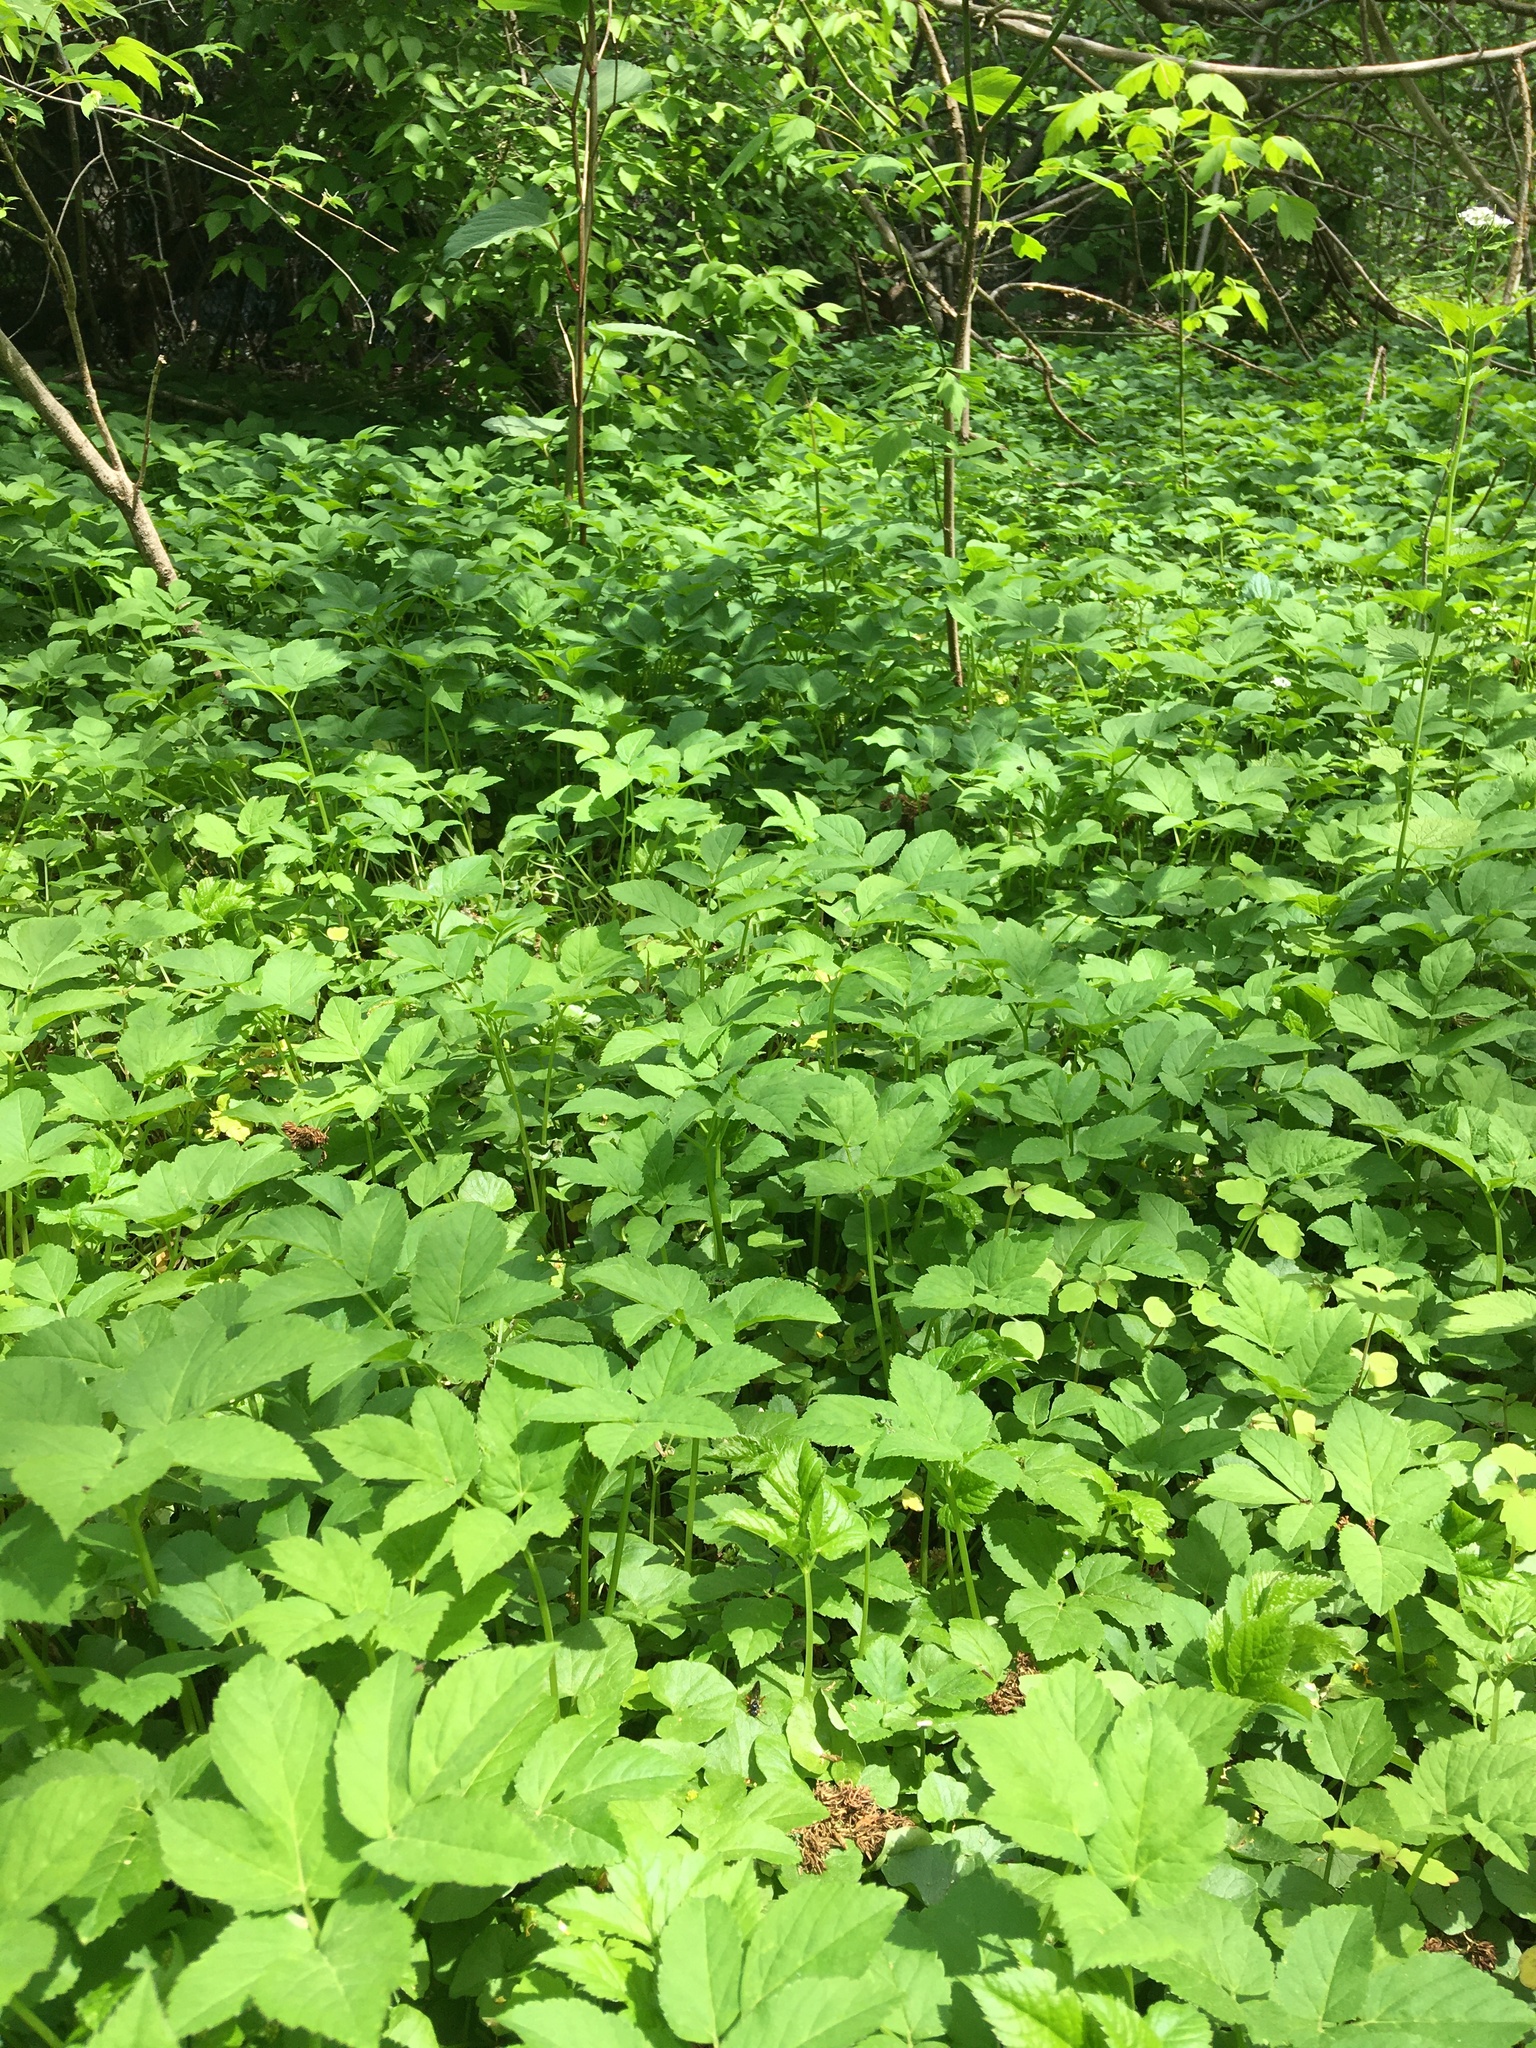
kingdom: Plantae
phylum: Tracheophyta
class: Magnoliopsida
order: Apiales
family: Apiaceae
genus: Aegopodium
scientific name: Aegopodium podagraria
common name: Ground-elder
